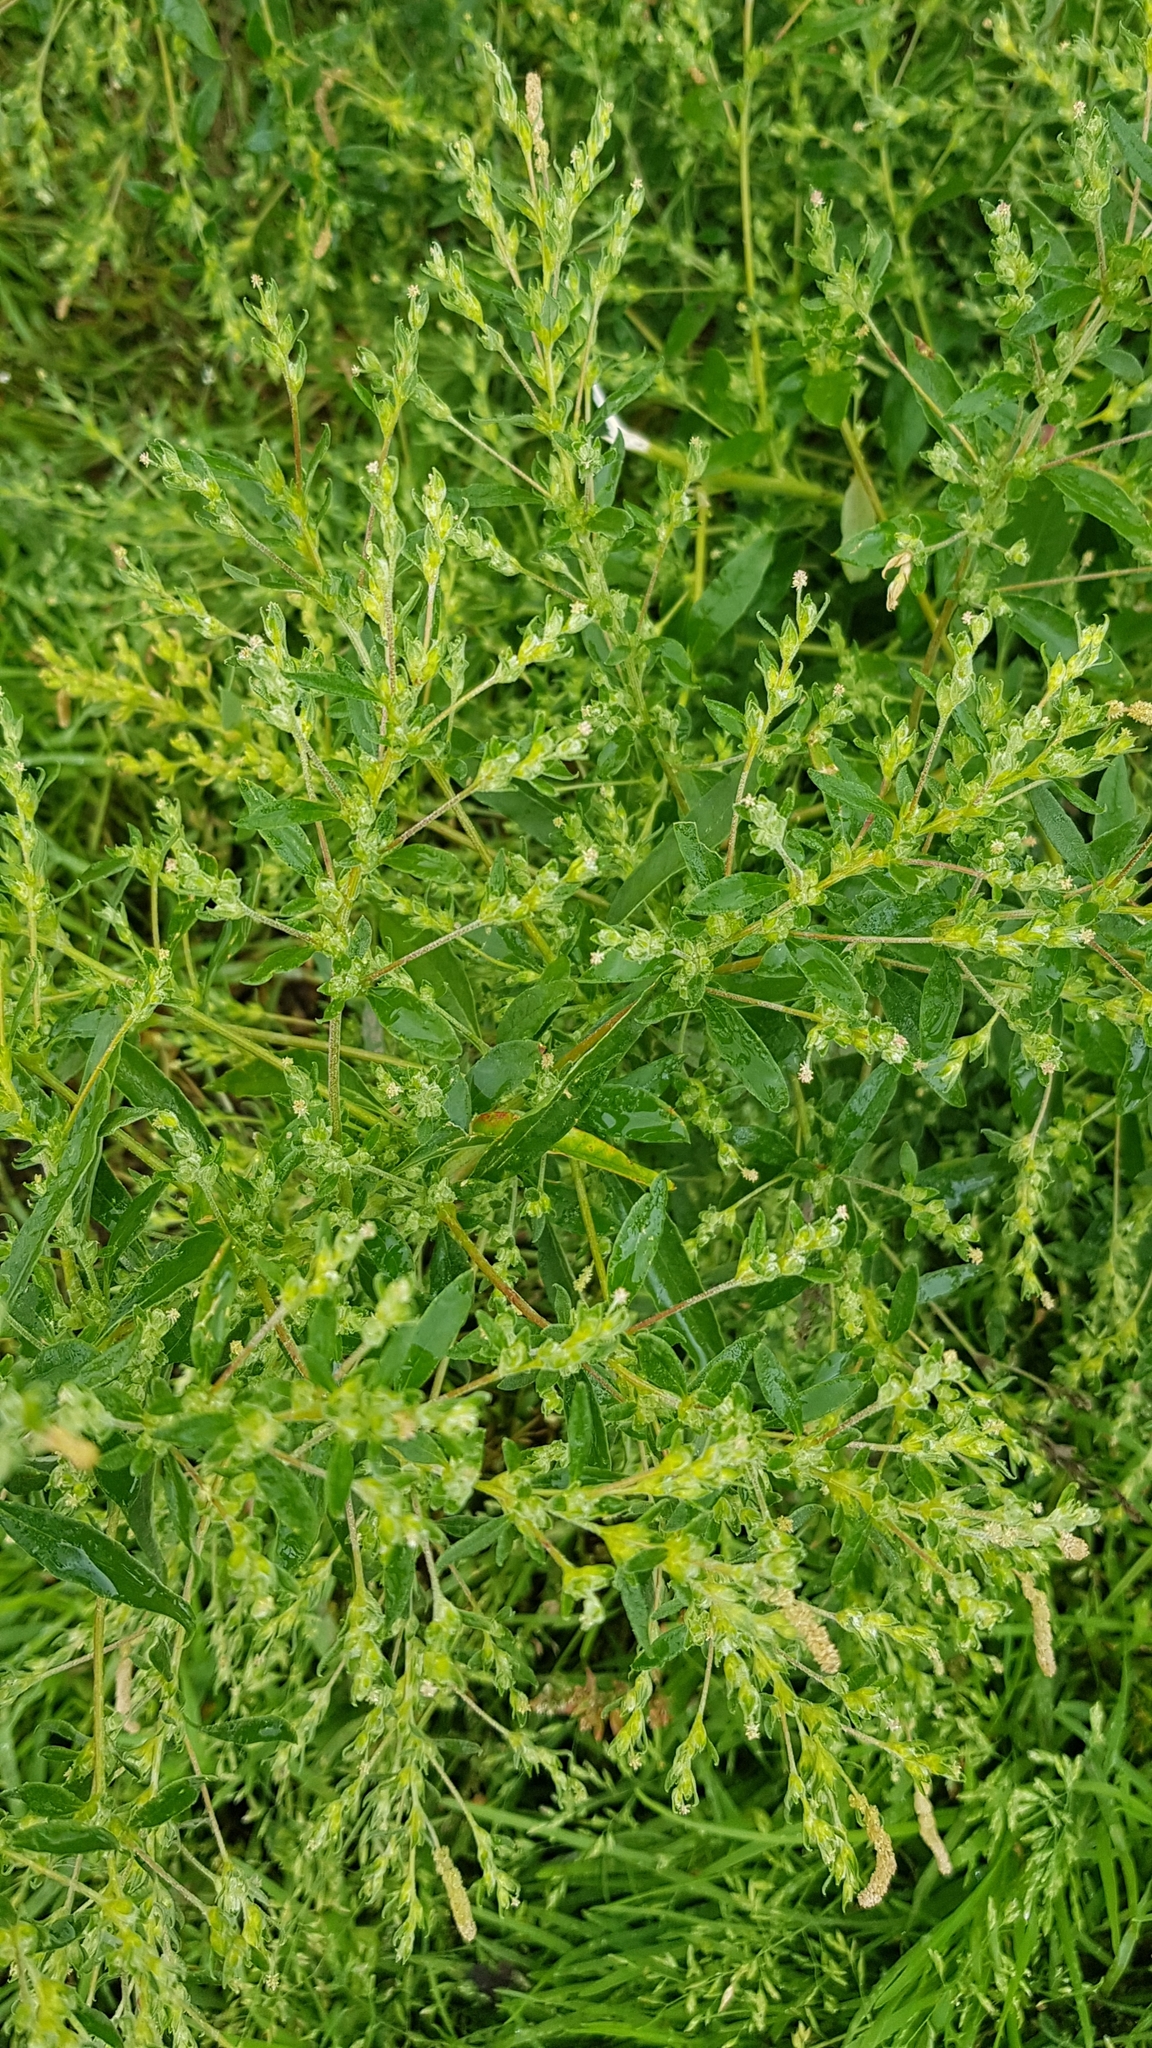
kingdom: Plantae
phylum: Tracheophyta
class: Magnoliopsida
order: Caryophyllales
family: Amaranthaceae
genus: Axyris
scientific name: Axyris amaranthoides
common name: Russian pigweed
